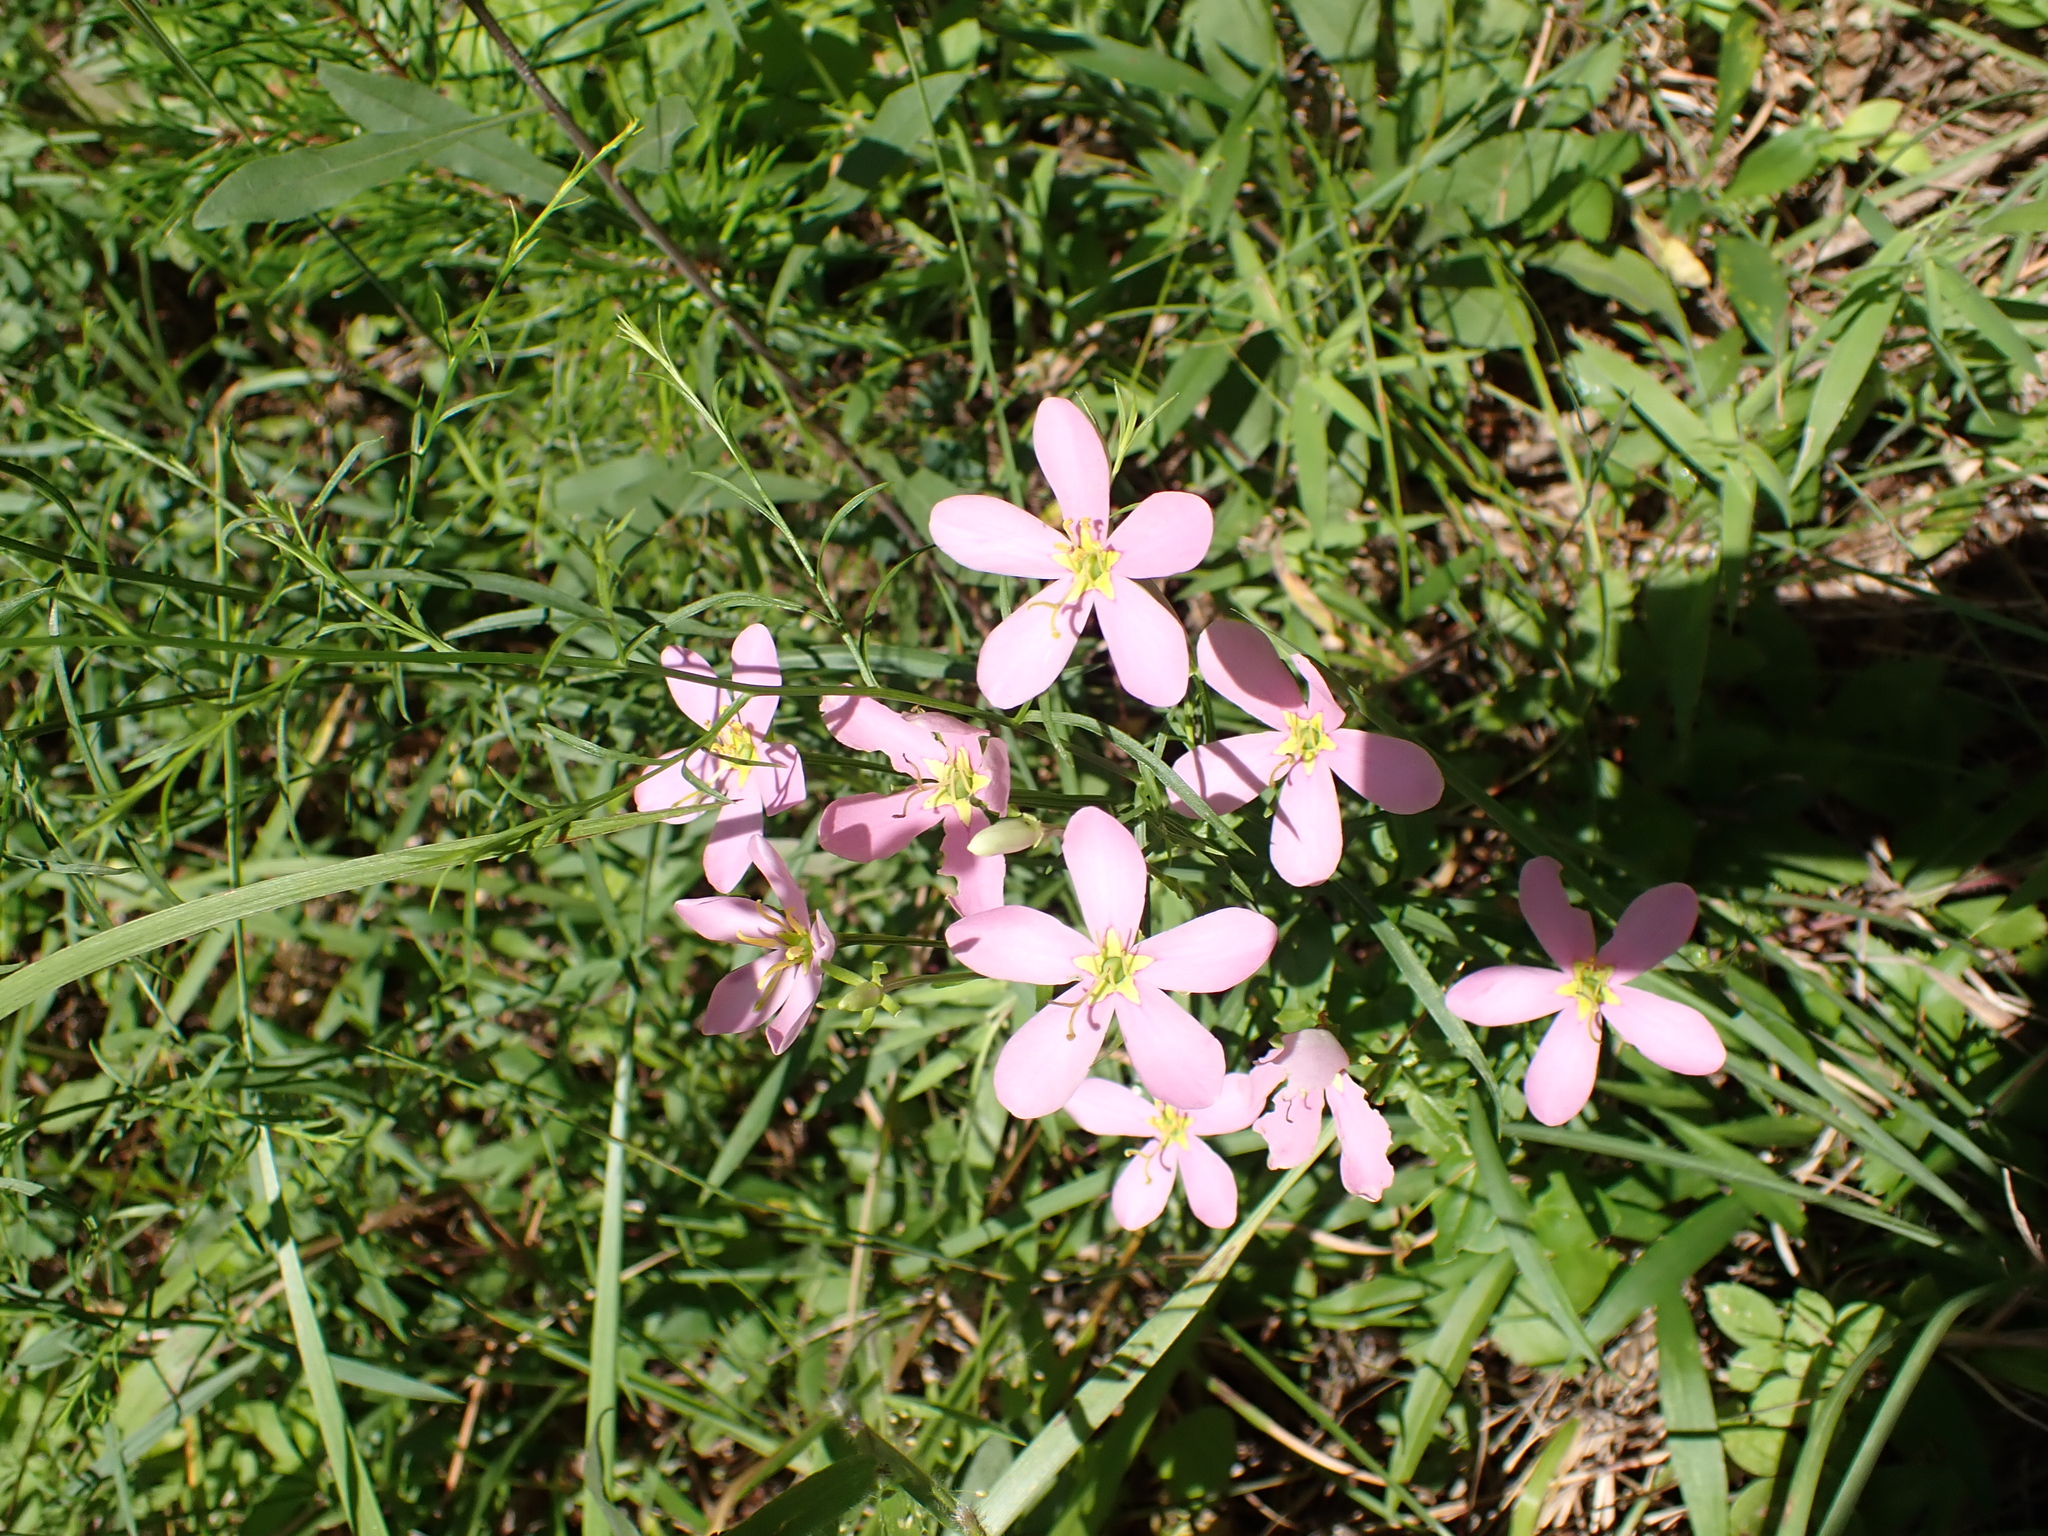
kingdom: Plantae
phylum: Tracheophyta
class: Magnoliopsida
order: Gentianales
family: Gentianaceae
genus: Sabatia
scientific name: Sabatia angularis
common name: Rose-pink
